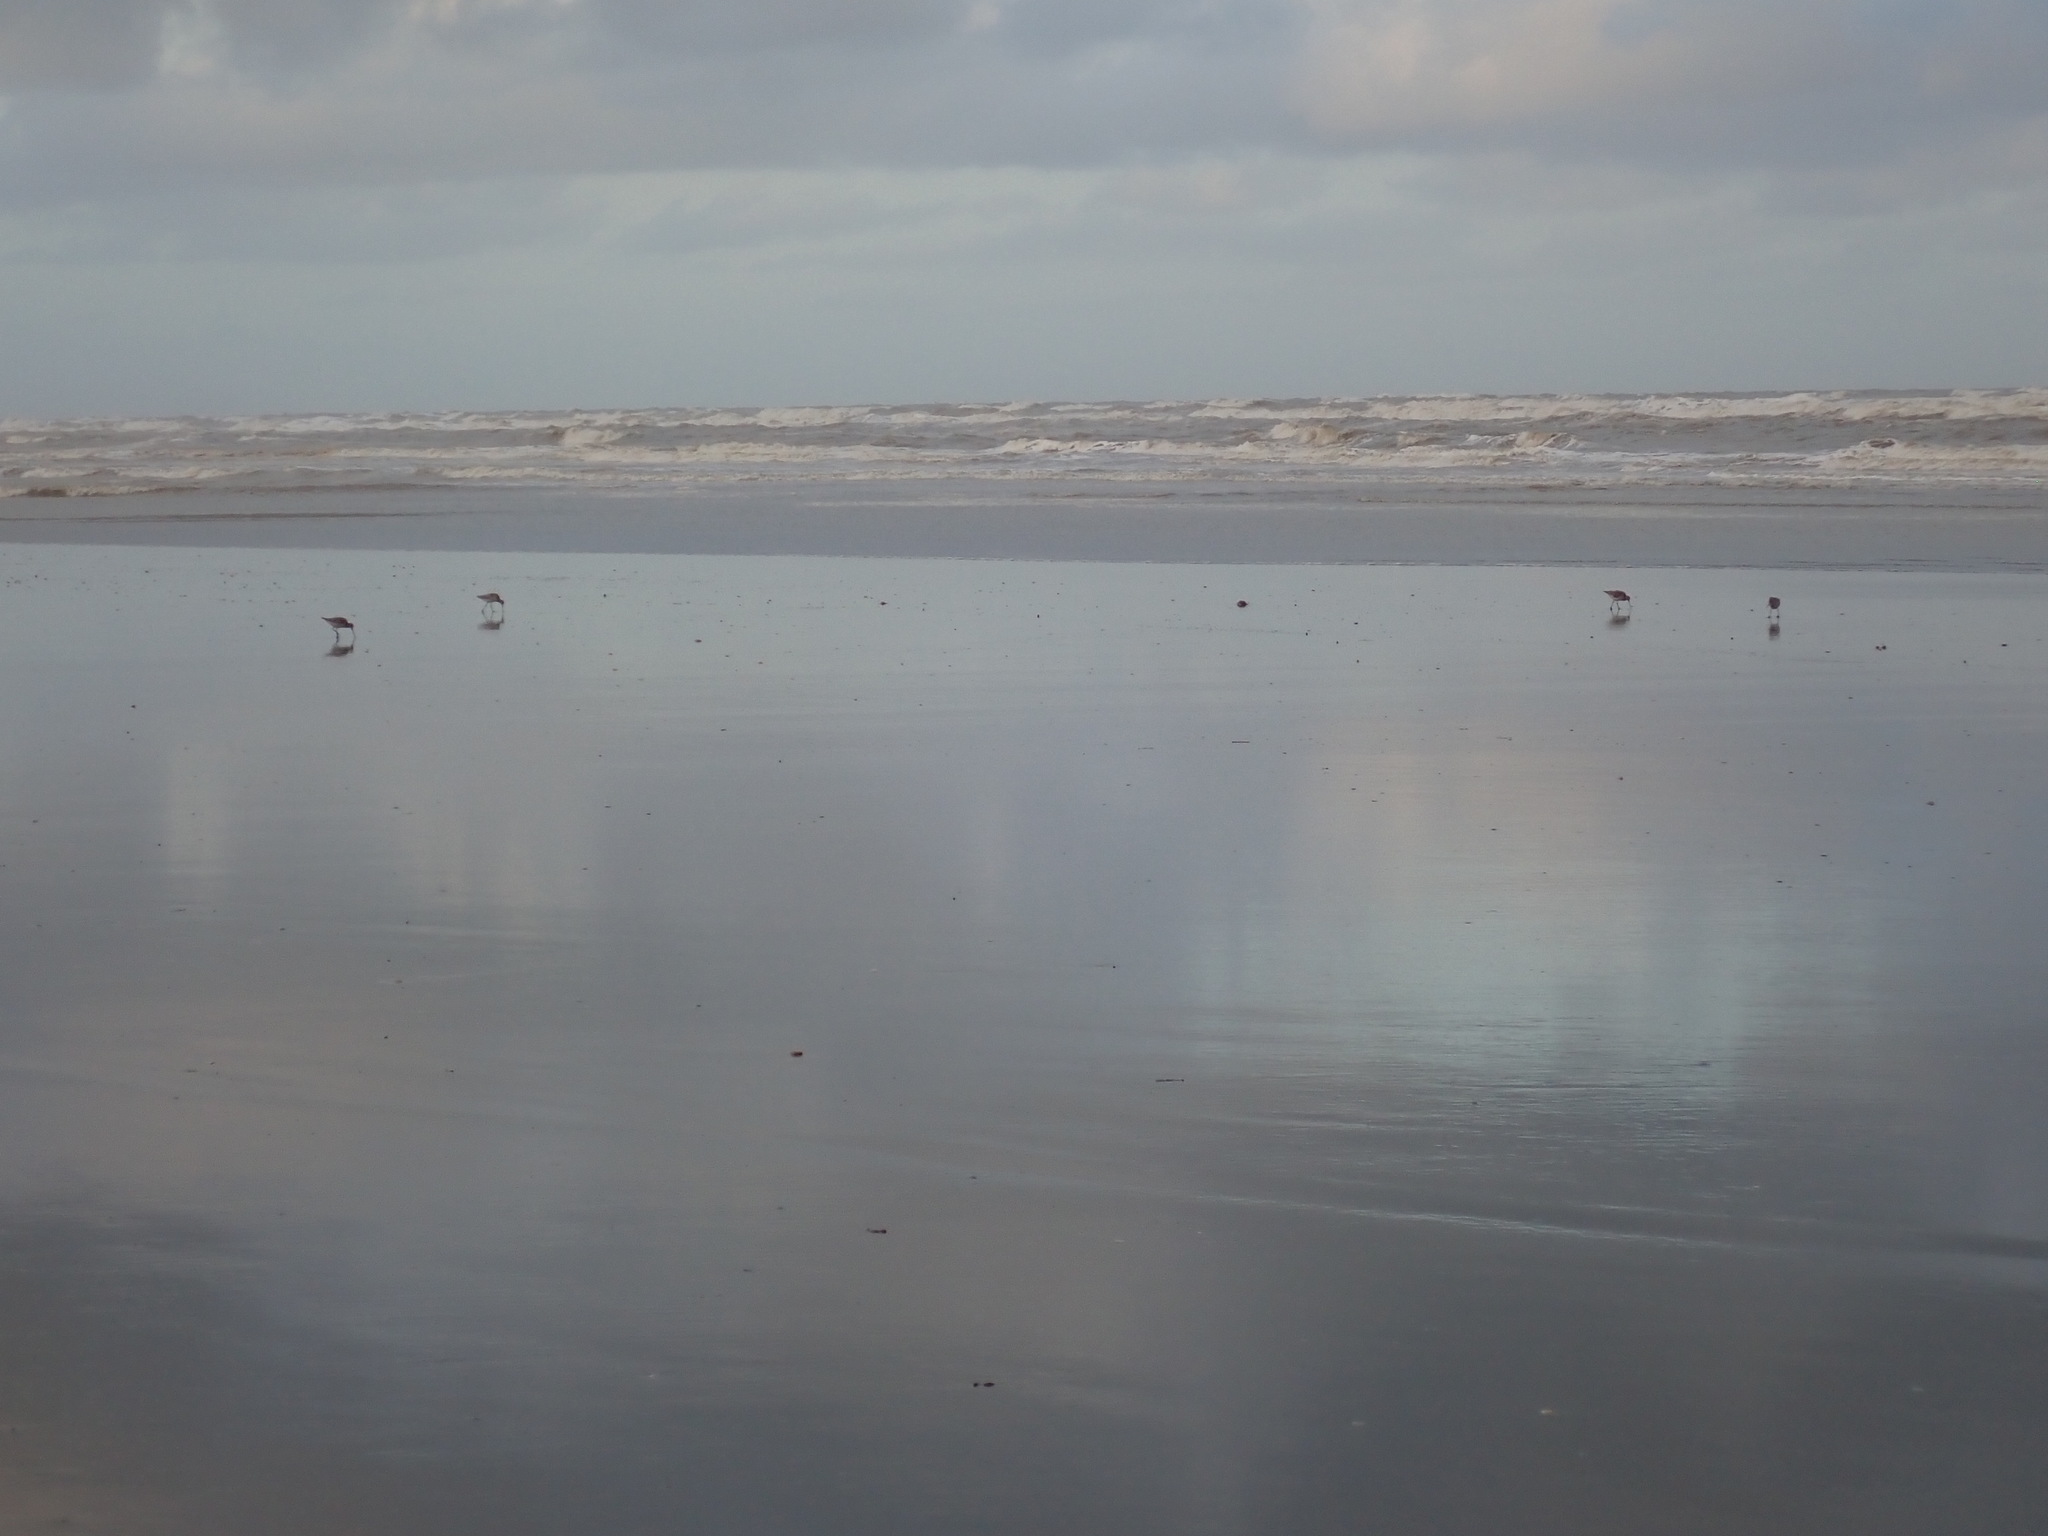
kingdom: Animalia
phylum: Chordata
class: Aves
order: Charadriiformes
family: Scolopacidae
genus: Limosa
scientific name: Limosa lapponica
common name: Bar-tailed godwit
